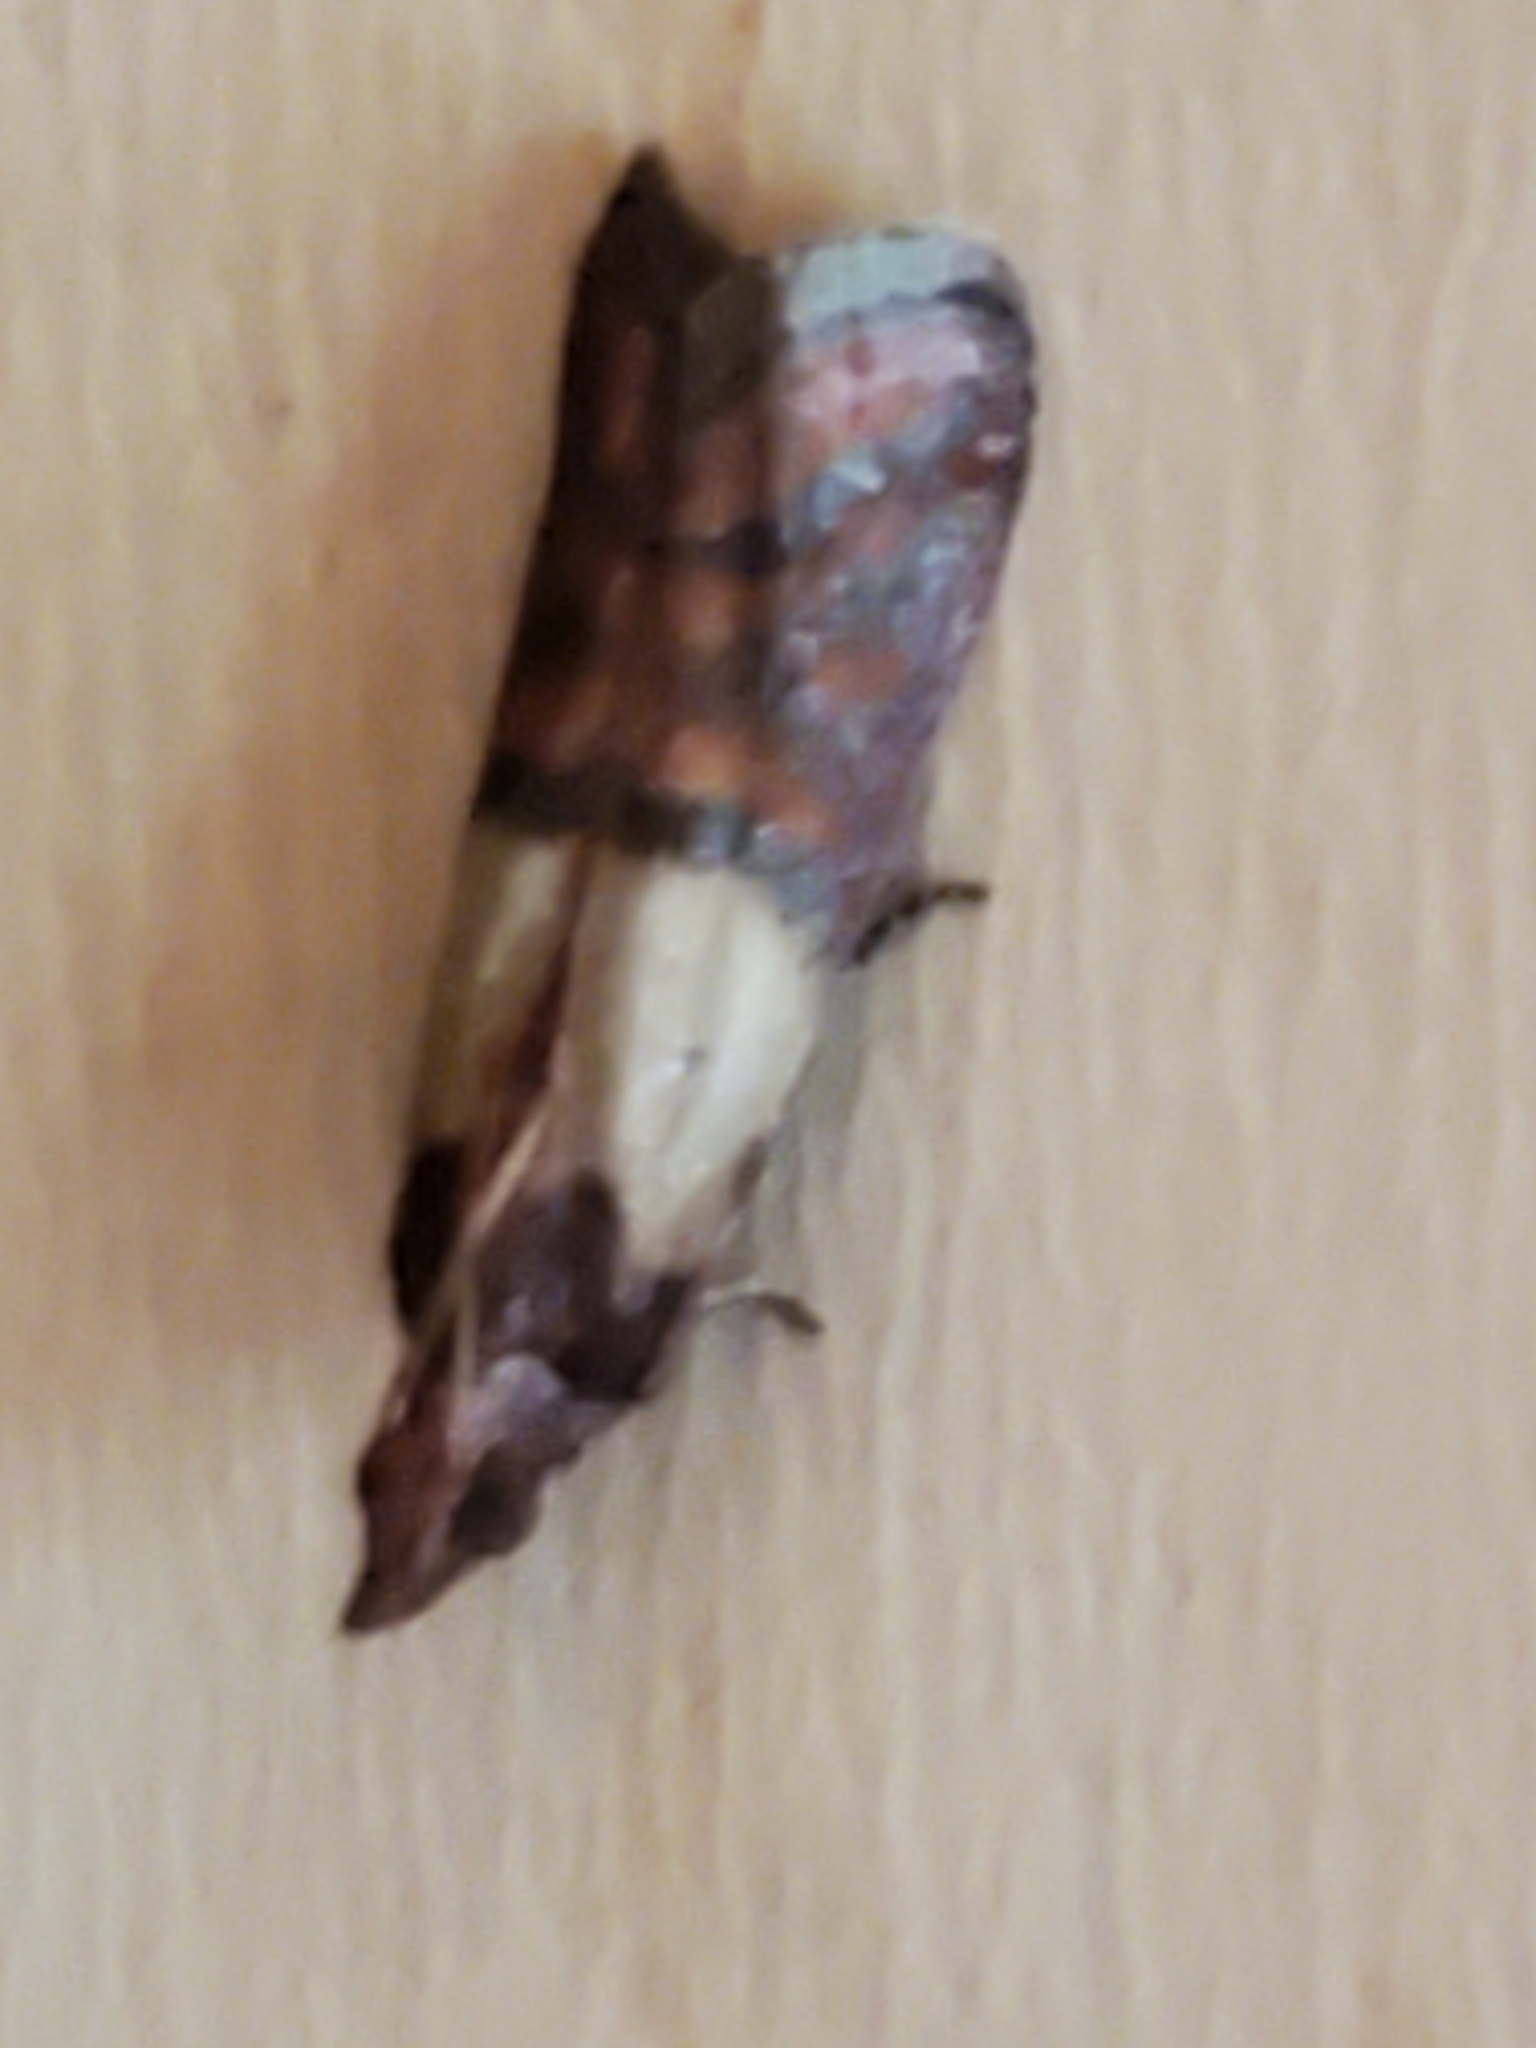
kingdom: Animalia
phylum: Arthropoda
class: Insecta
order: Lepidoptera
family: Pyralidae
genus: Plodia
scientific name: Plodia interpunctella
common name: Indian meal moth
